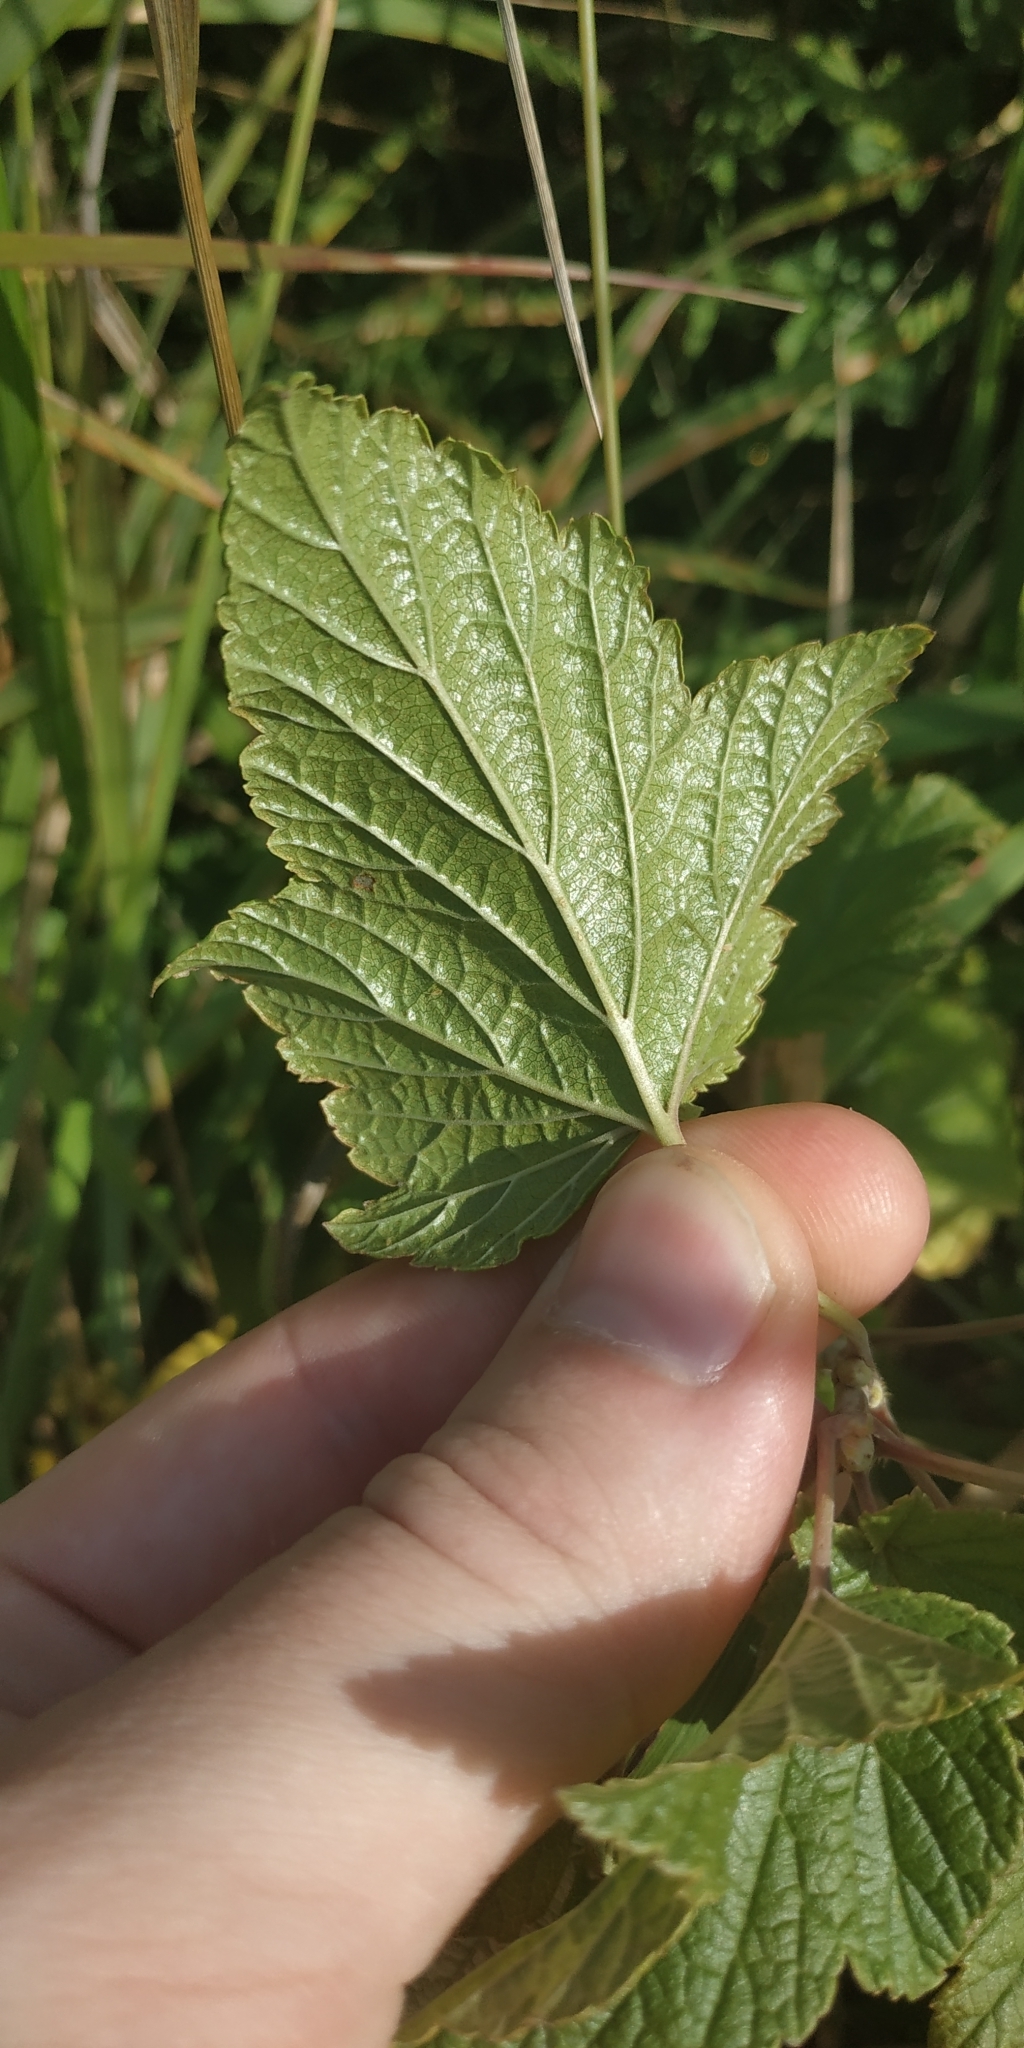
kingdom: Plantae
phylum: Tracheophyta
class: Magnoliopsida
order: Saxifragales
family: Grossulariaceae
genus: Ribes
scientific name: Ribes nigrum
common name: Black currant
